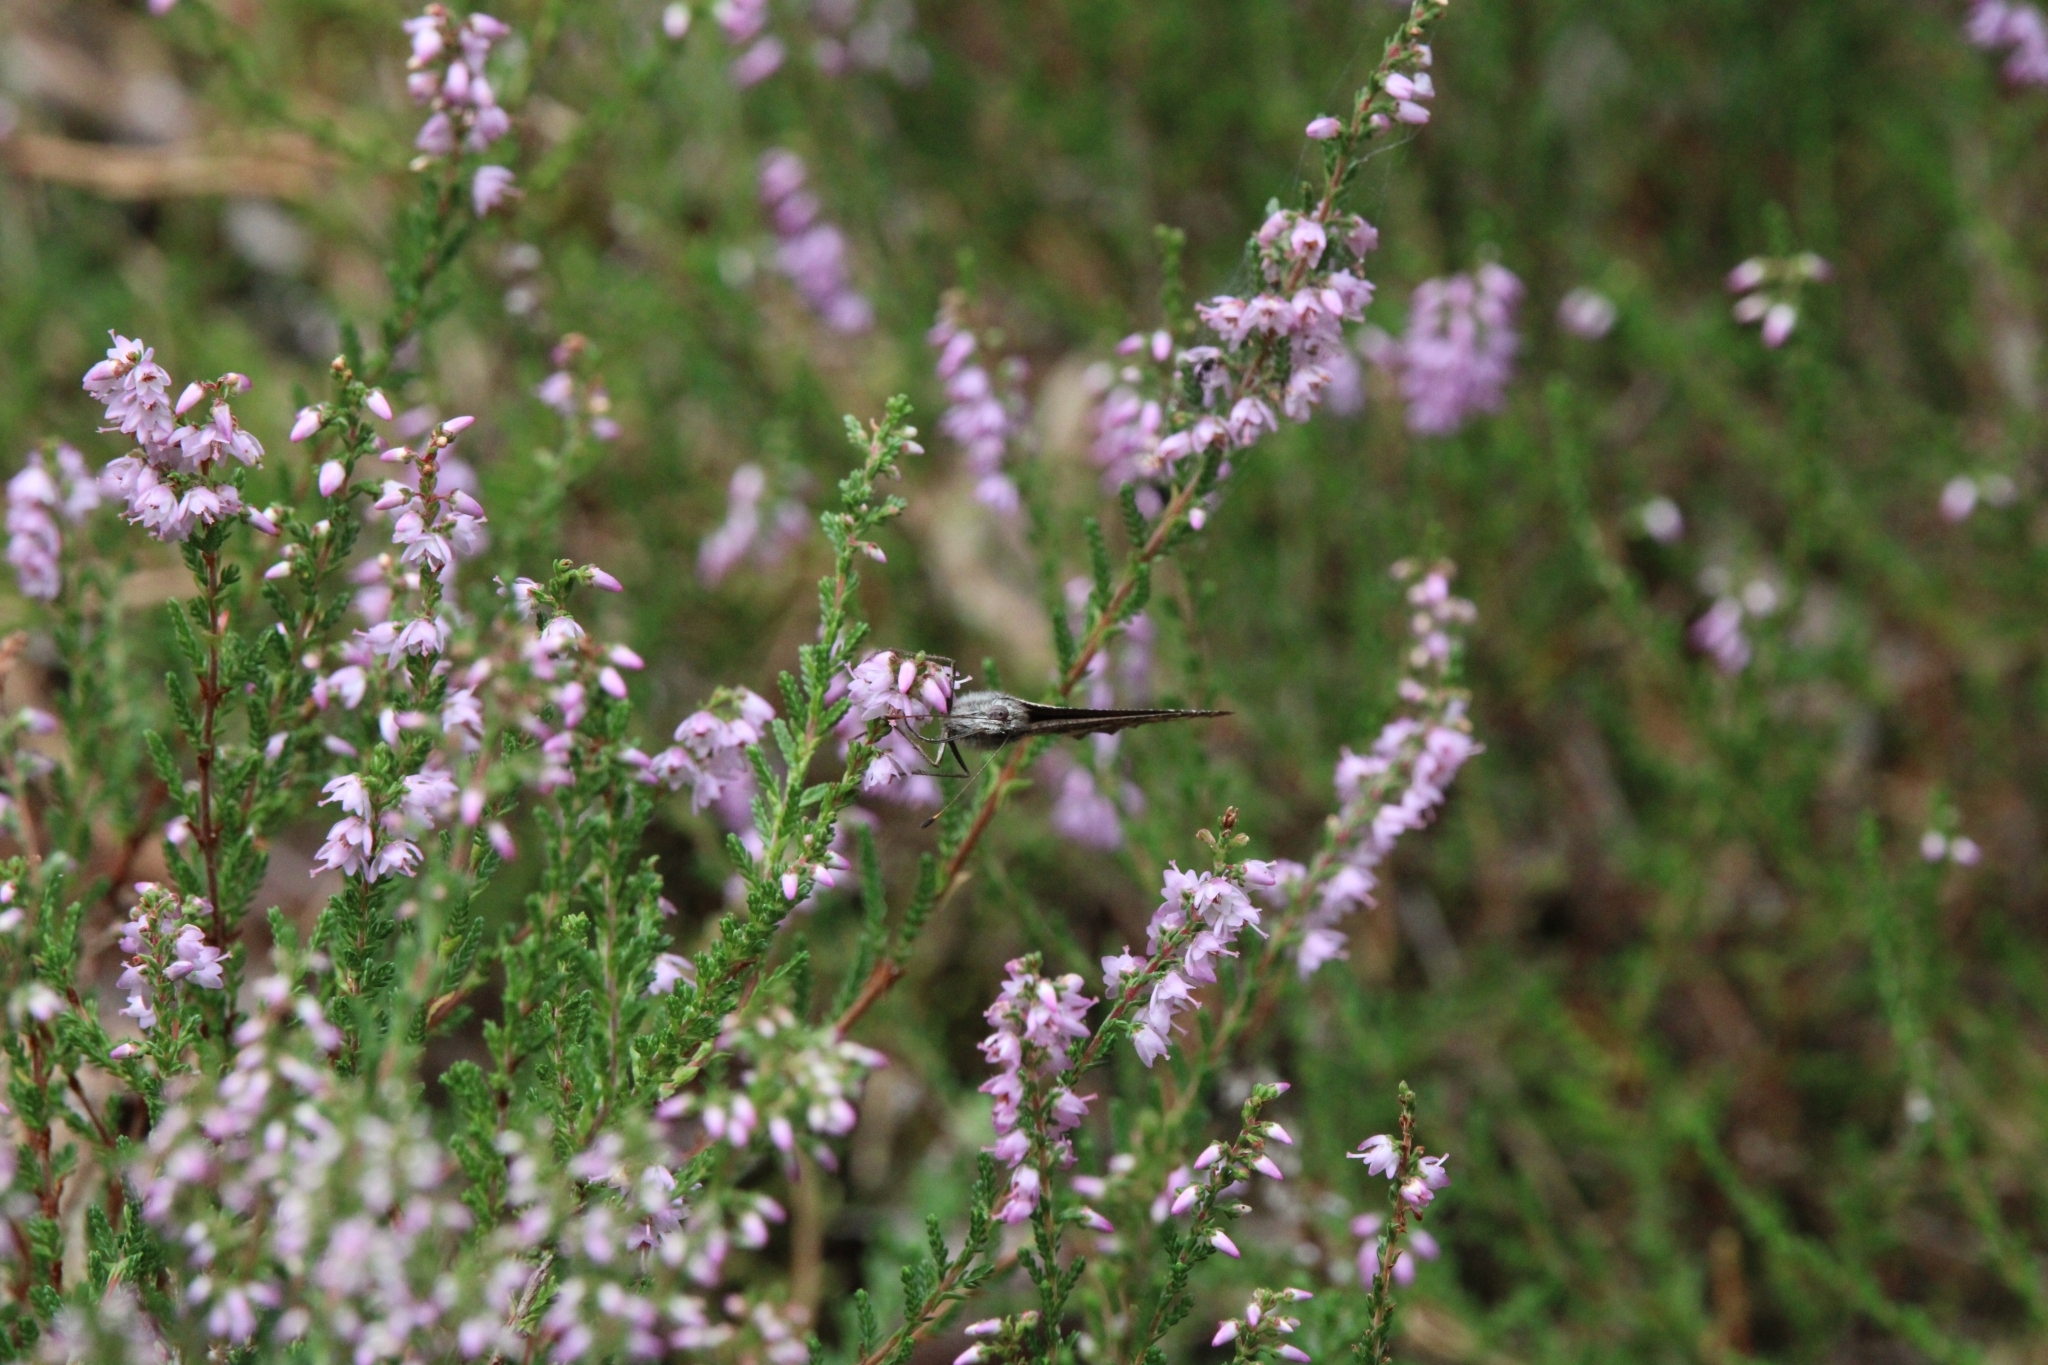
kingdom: Plantae
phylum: Tracheophyta
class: Magnoliopsida
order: Ericales
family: Ericaceae
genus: Calluna
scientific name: Calluna vulgaris
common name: Heather
